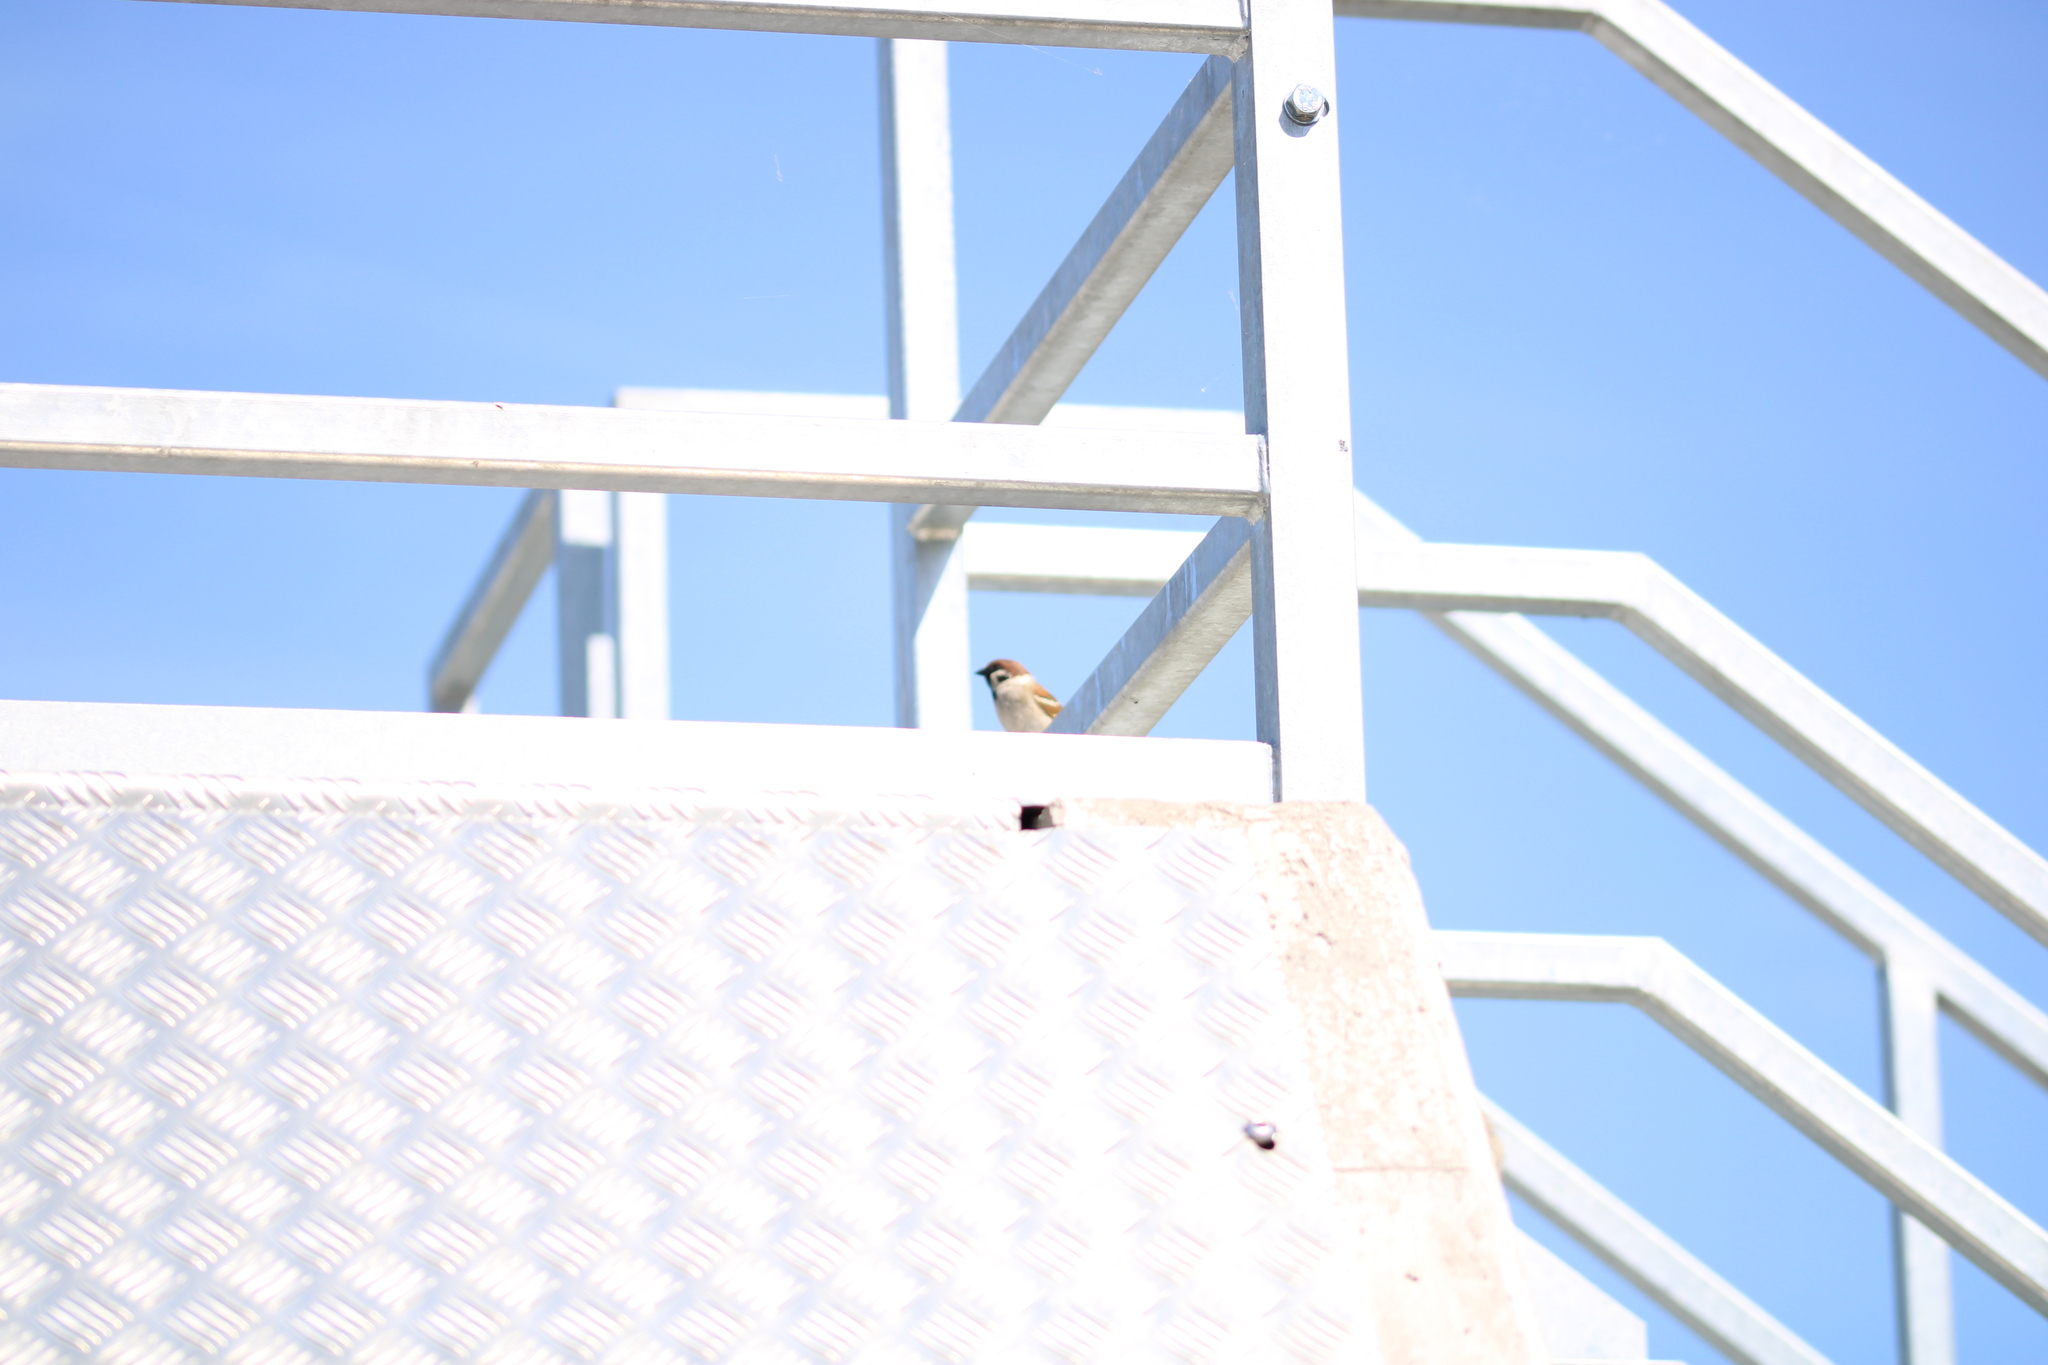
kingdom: Animalia
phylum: Chordata
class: Aves
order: Passeriformes
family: Passeridae
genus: Passer
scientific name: Passer montanus
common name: Eurasian tree sparrow
